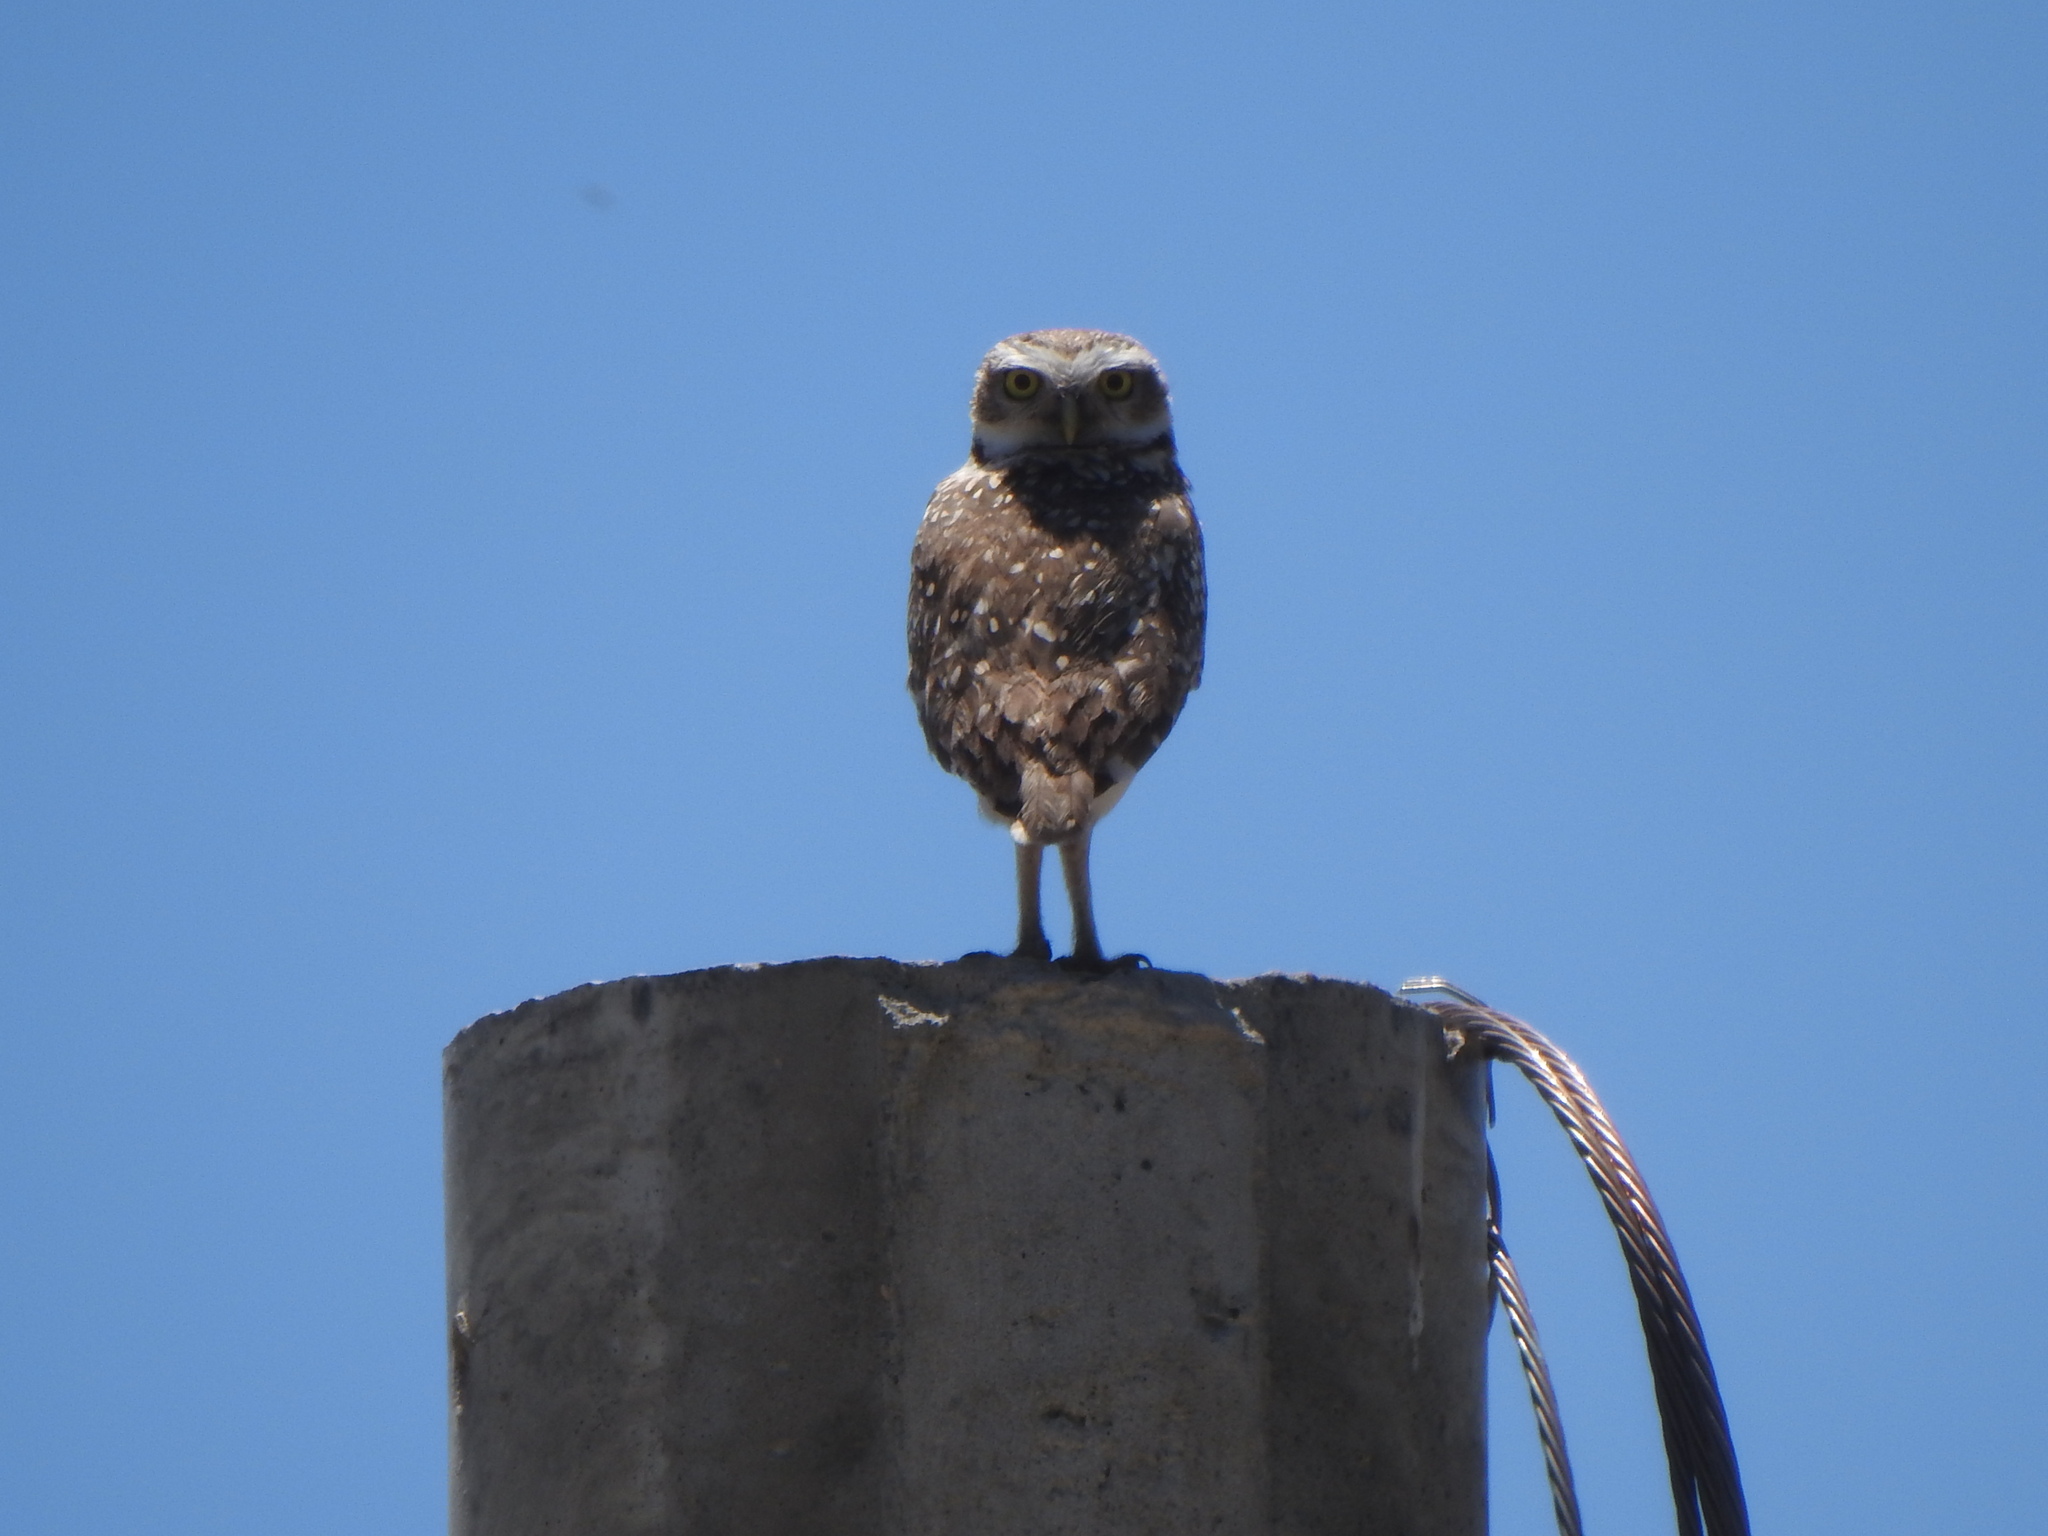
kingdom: Animalia
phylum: Chordata
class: Aves
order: Strigiformes
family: Strigidae
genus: Athene
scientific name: Athene cunicularia
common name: Burrowing owl
